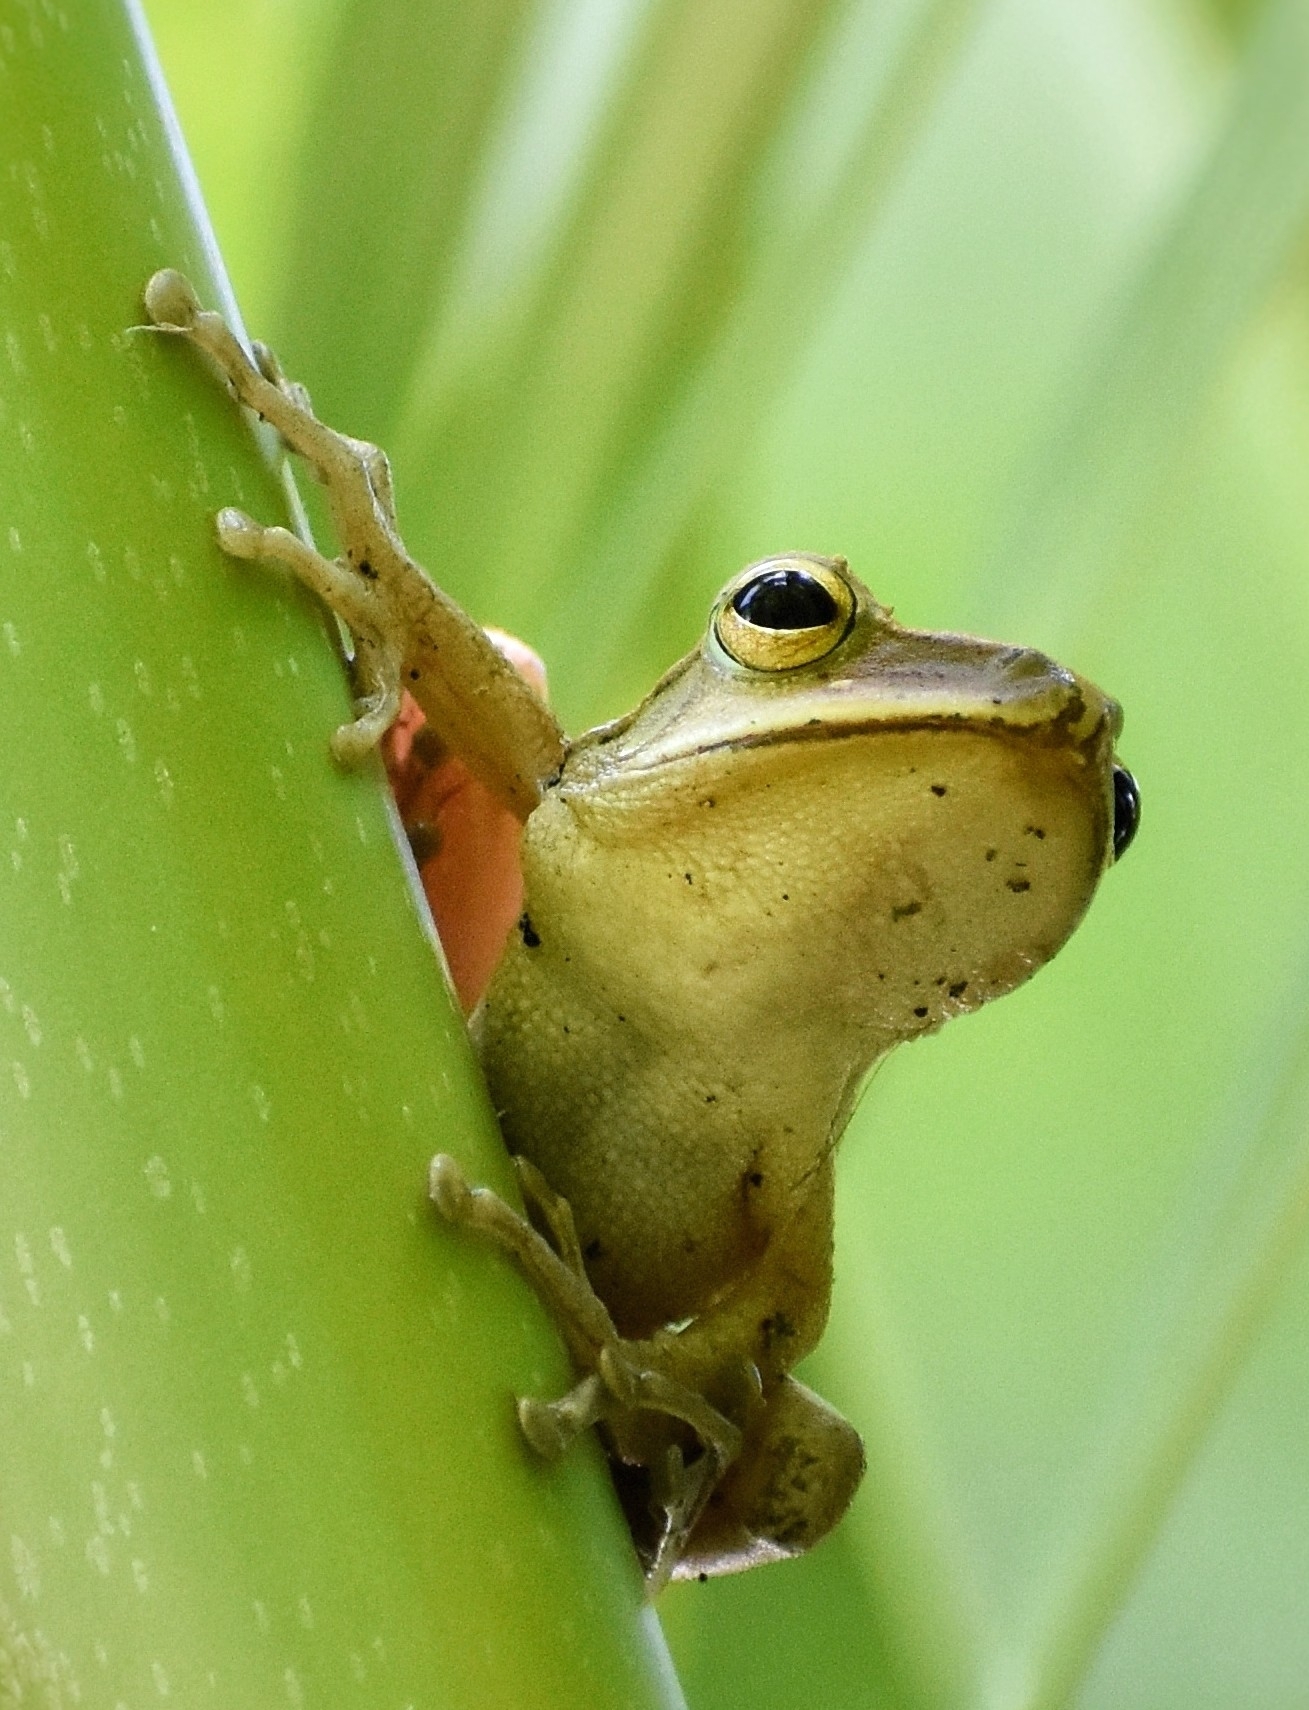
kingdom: Animalia
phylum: Chordata
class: Amphibia
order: Anura
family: Rhacophoridae
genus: Polypedates
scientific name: Polypedates megacephalus
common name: Hong kong whipping frog
